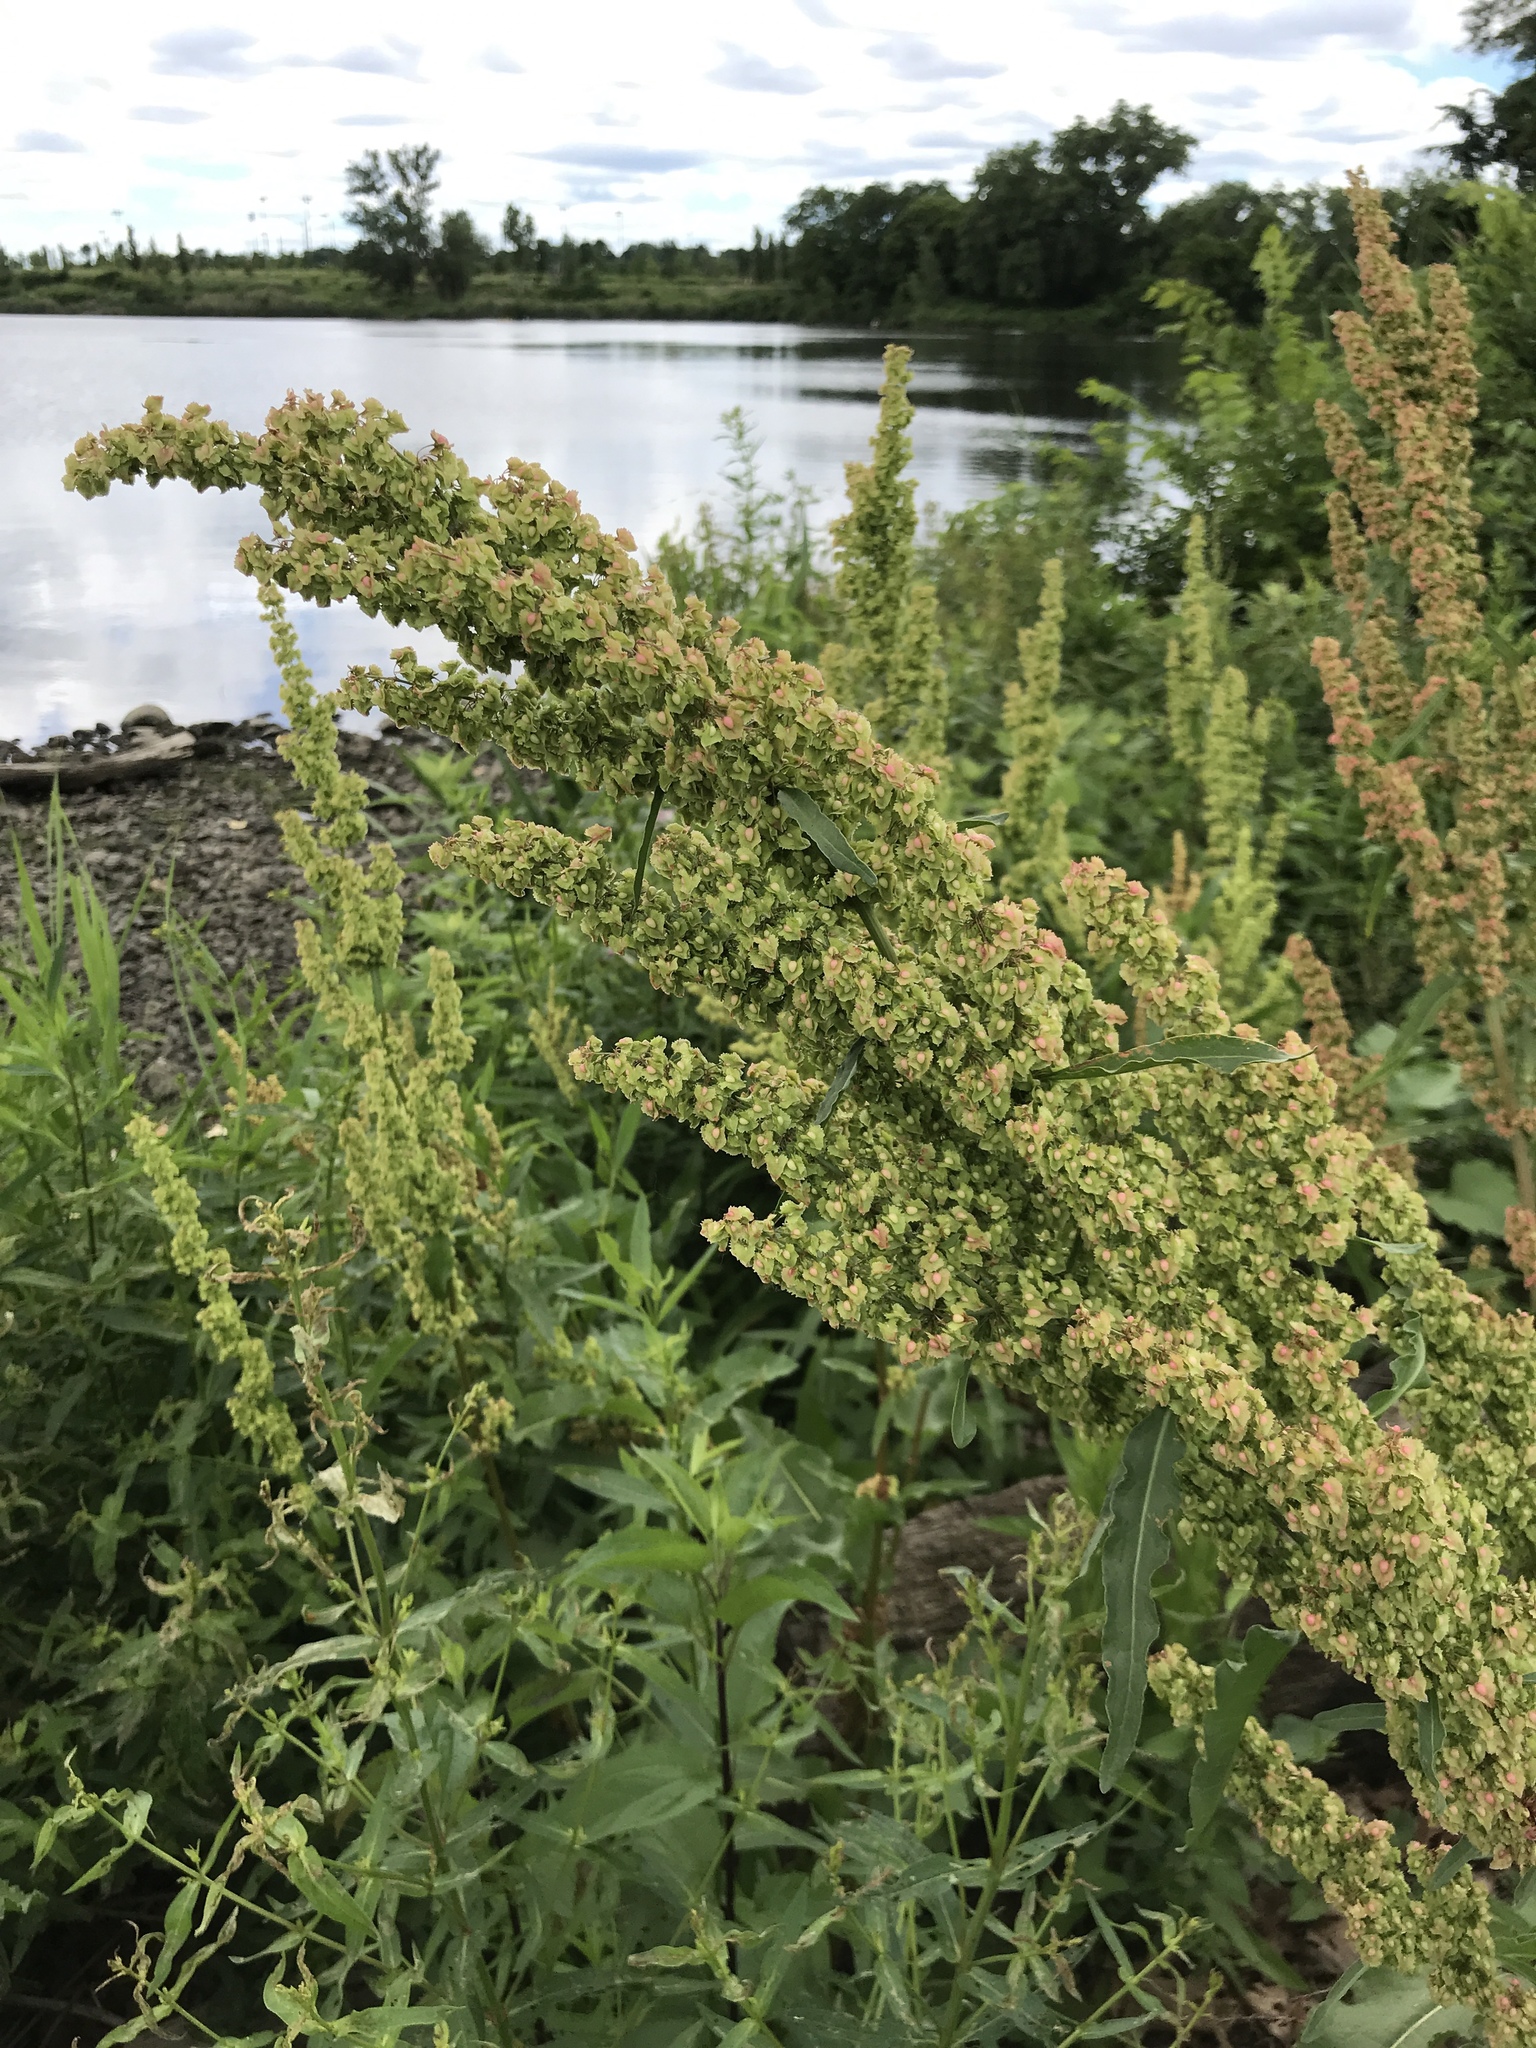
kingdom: Plantae
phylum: Tracheophyta
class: Magnoliopsida
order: Caryophyllales
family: Polygonaceae
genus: Rumex
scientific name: Rumex obtusifolius
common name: Bitter dock
